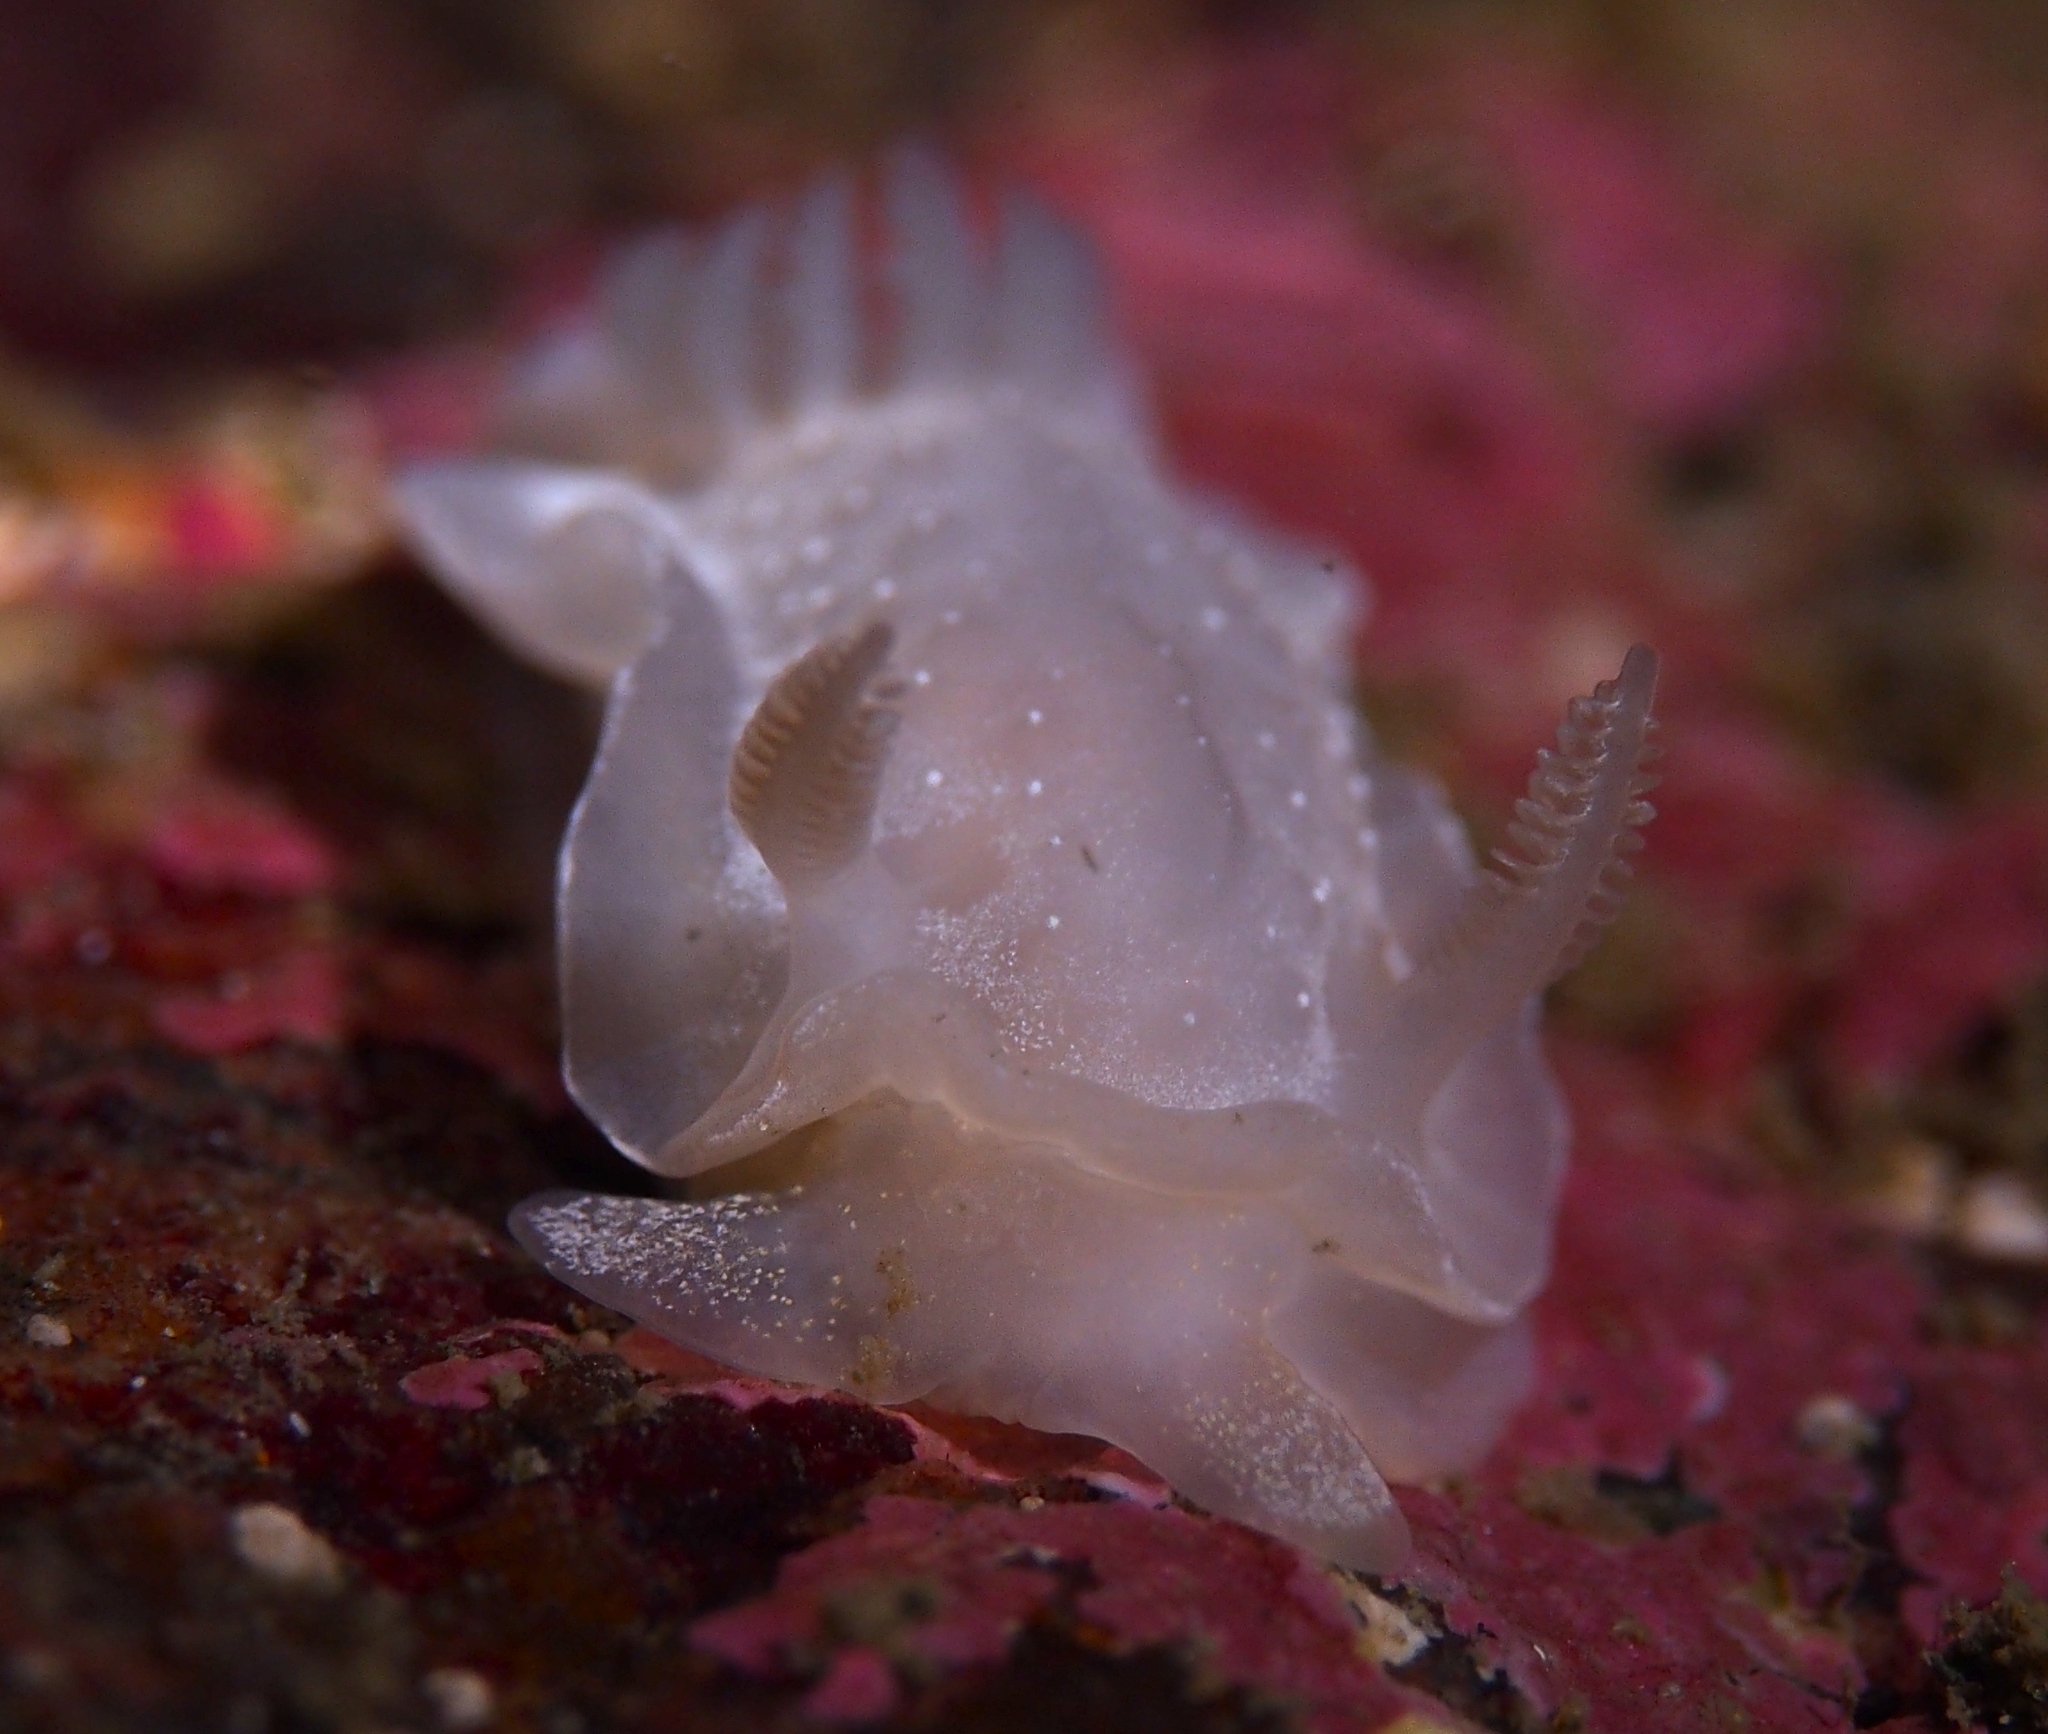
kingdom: Animalia
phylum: Mollusca
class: Gastropoda
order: Nudibranchia
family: Goniodorididae
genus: Okenia
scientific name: Okenia
